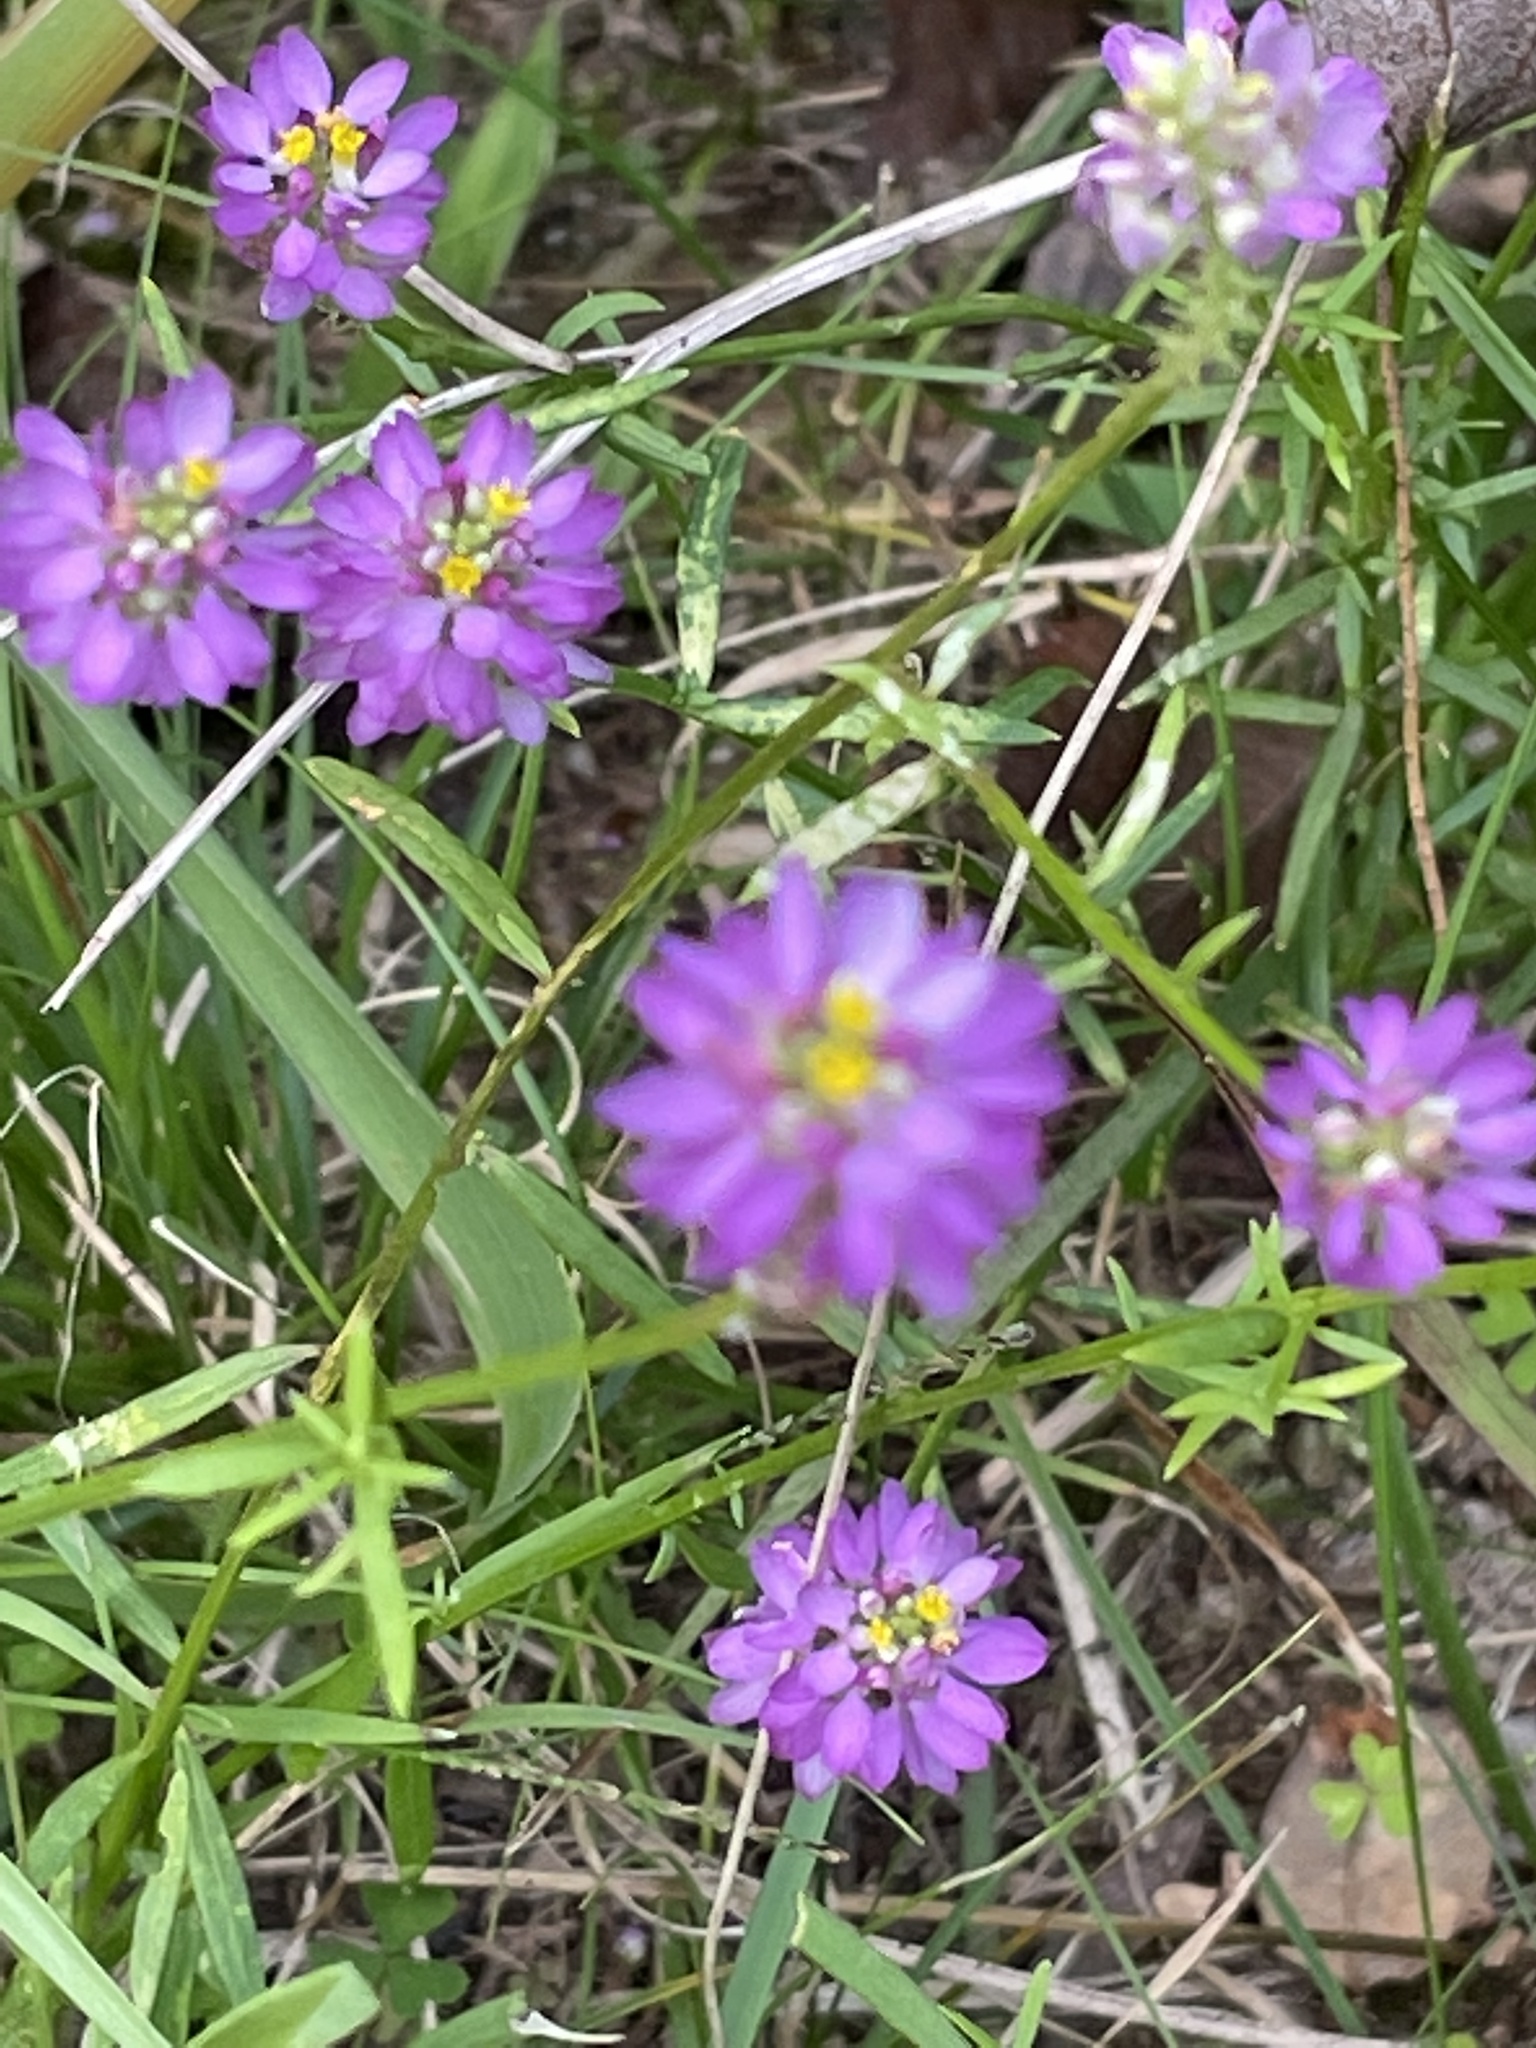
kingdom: Plantae
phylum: Tracheophyta
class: Magnoliopsida
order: Fabales
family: Polygalaceae
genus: Polygala
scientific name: Polygala curtissii
